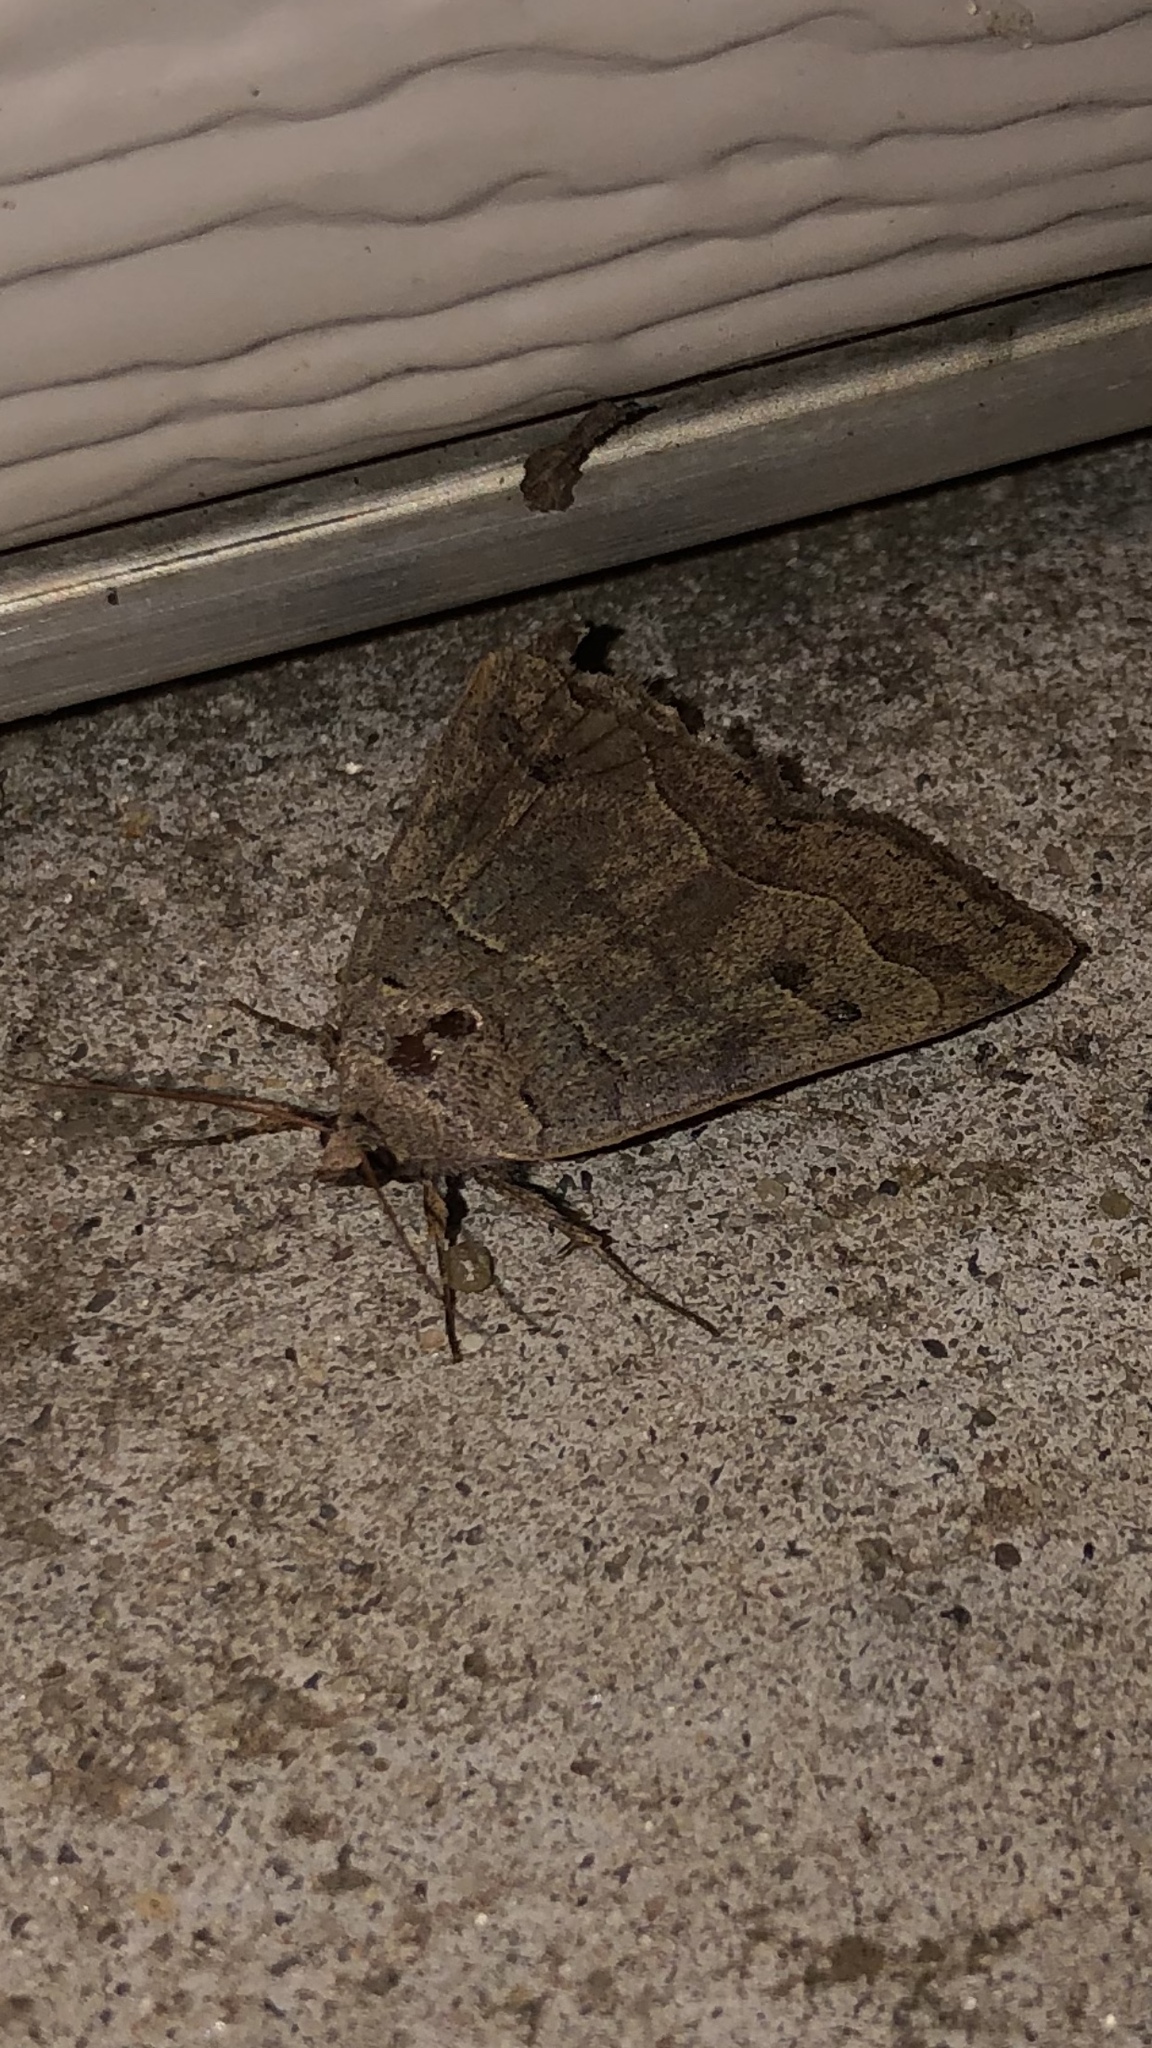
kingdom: Animalia
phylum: Arthropoda
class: Insecta
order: Lepidoptera
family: Erebidae
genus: Phoberia
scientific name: Phoberia atomaris
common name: Common oak moth
